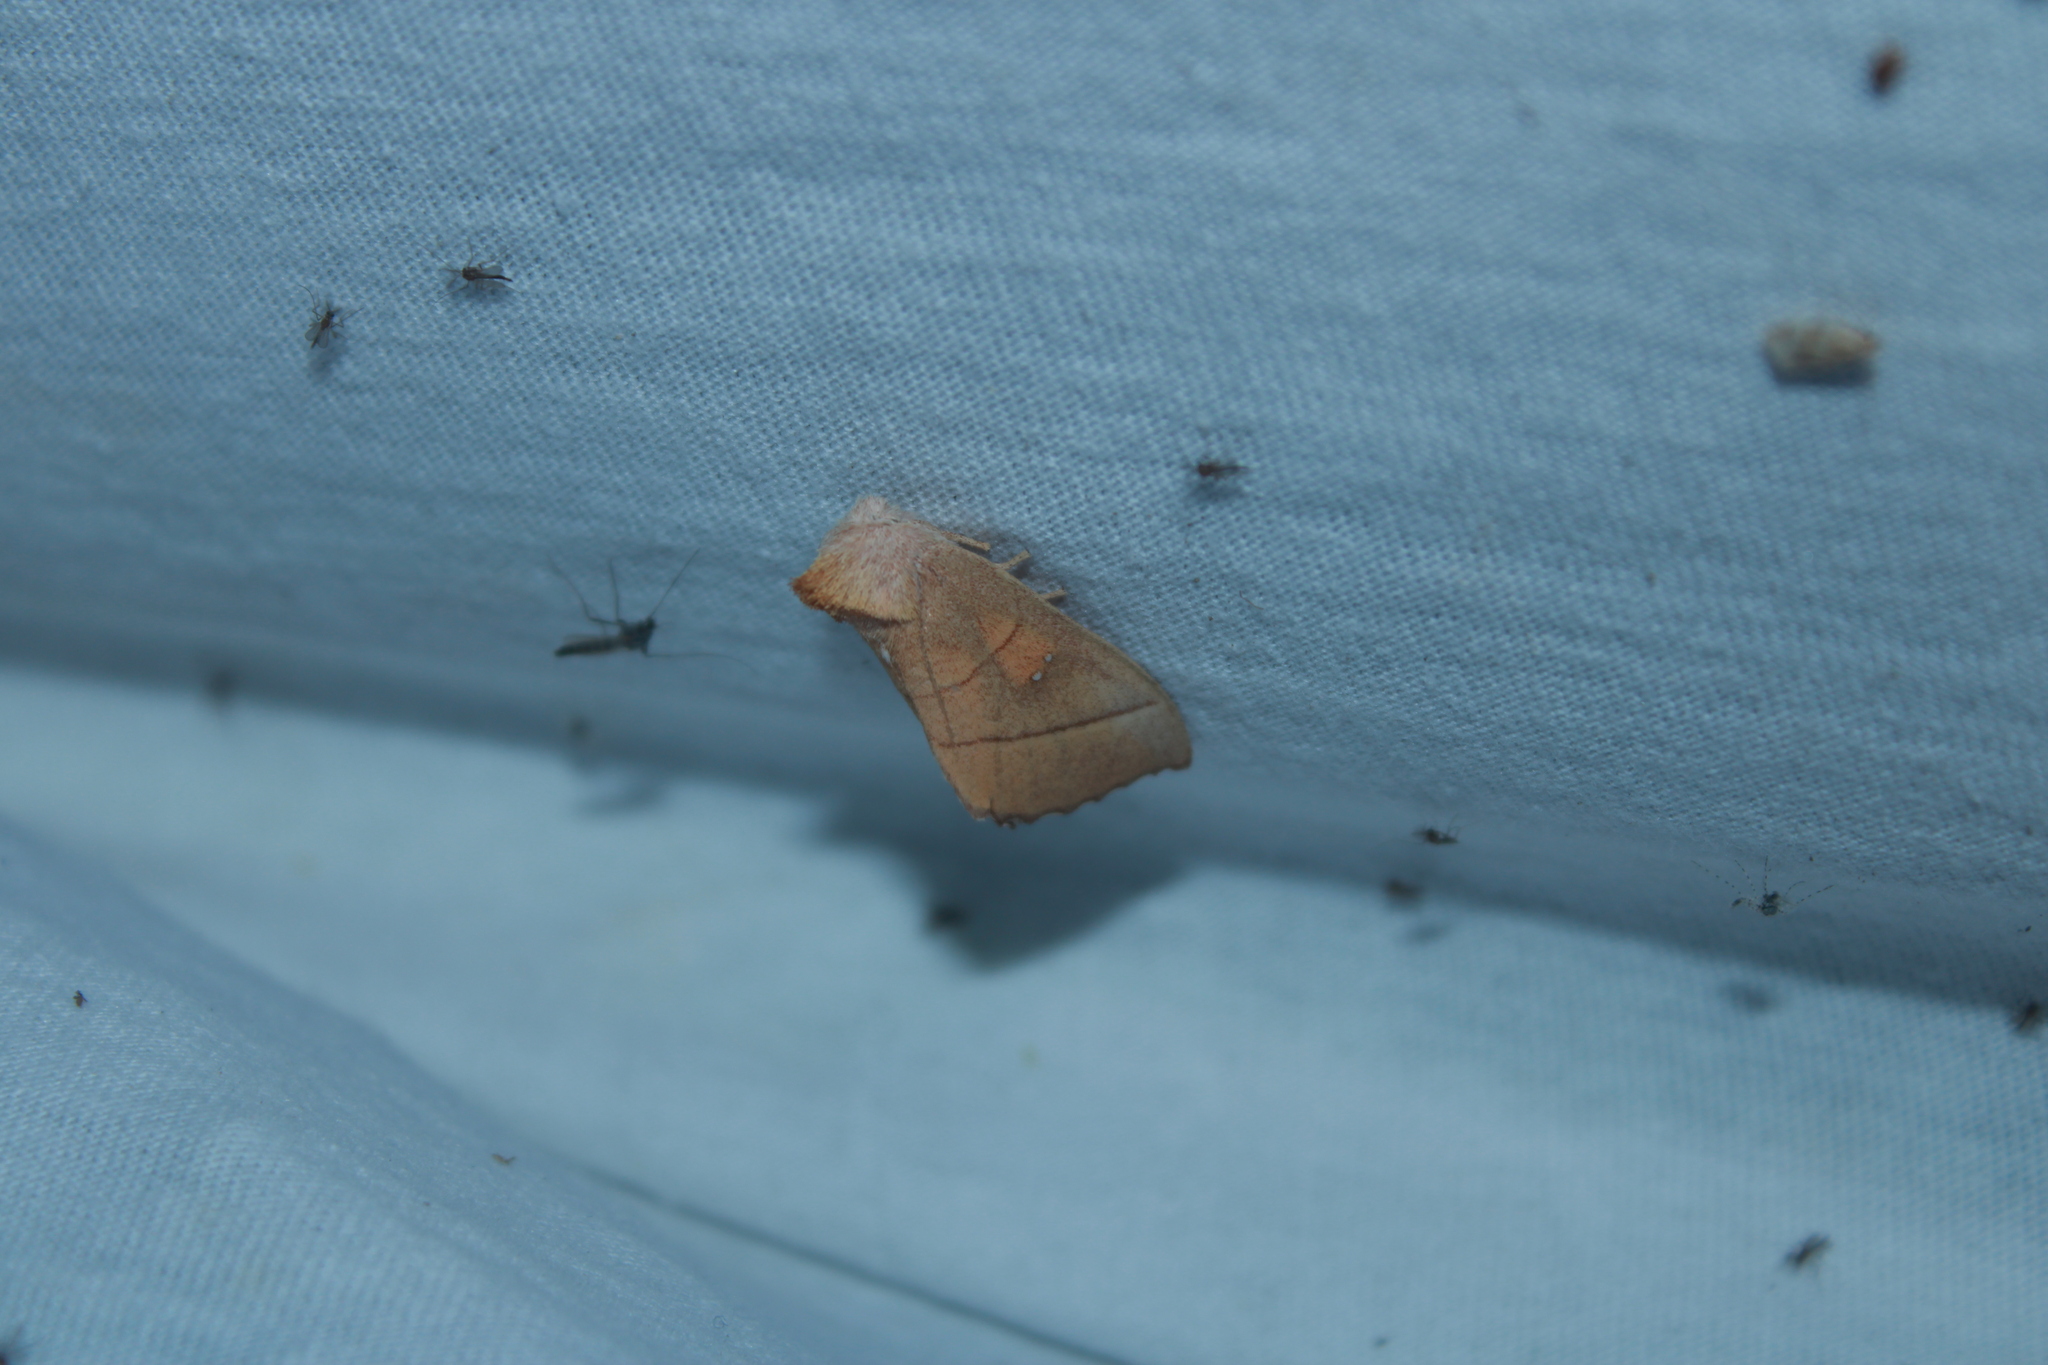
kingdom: Animalia
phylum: Arthropoda
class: Insecta
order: Lepidoptera
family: Notodontidae
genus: Nadata
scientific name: Nadata gibbosa
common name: White-dotted prominent
